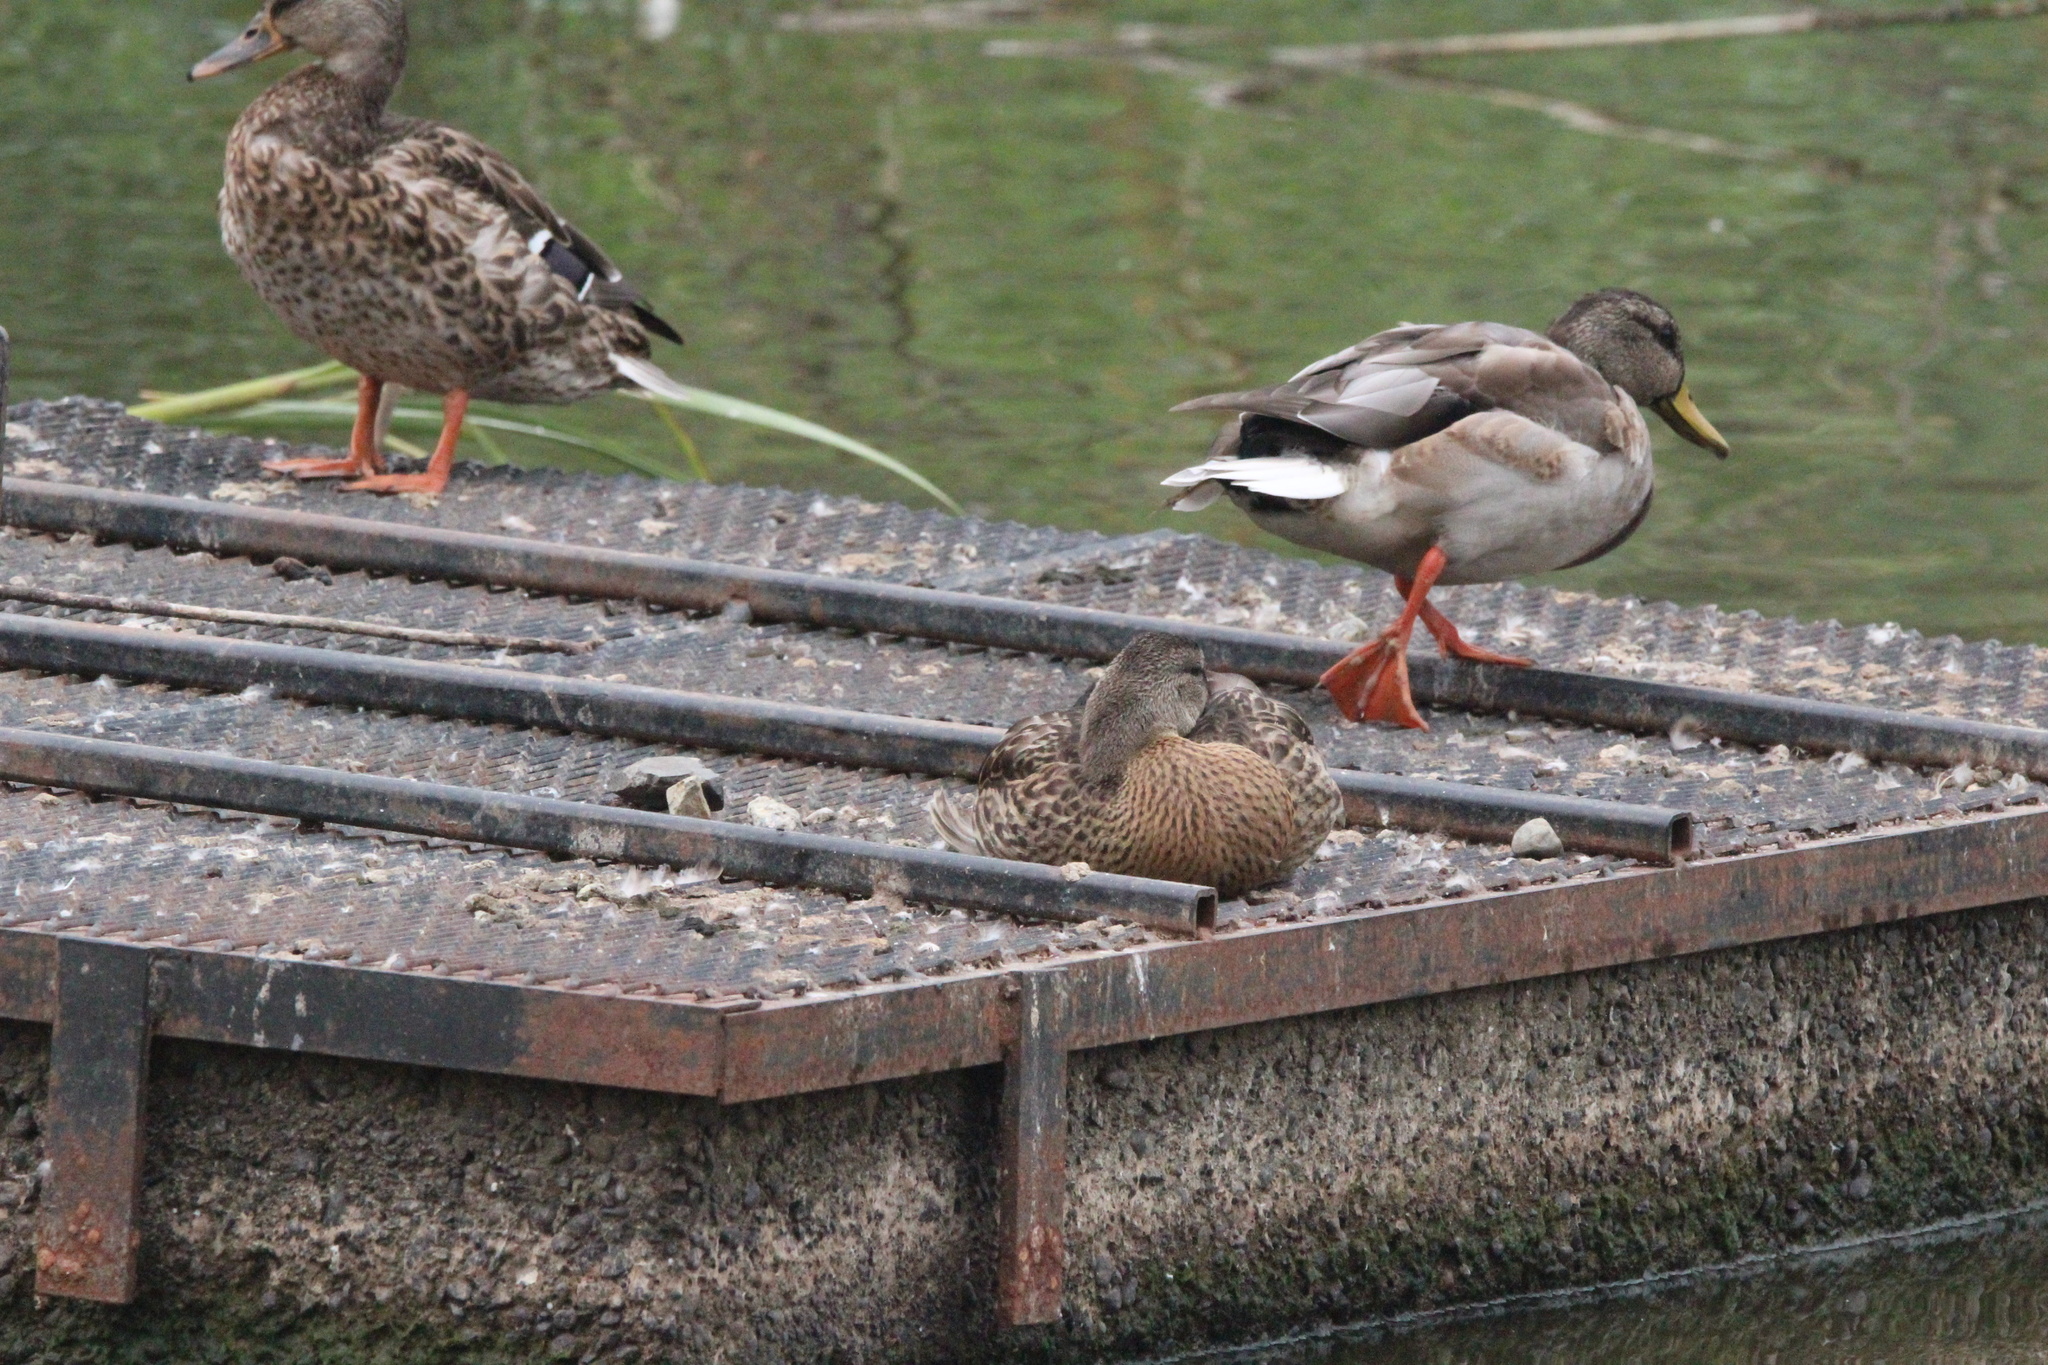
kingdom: Animalia
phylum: Chordata
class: Aves
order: Anseriformes
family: Anatidae
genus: Anas
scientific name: Anas platyrhynchos
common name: Mallard
